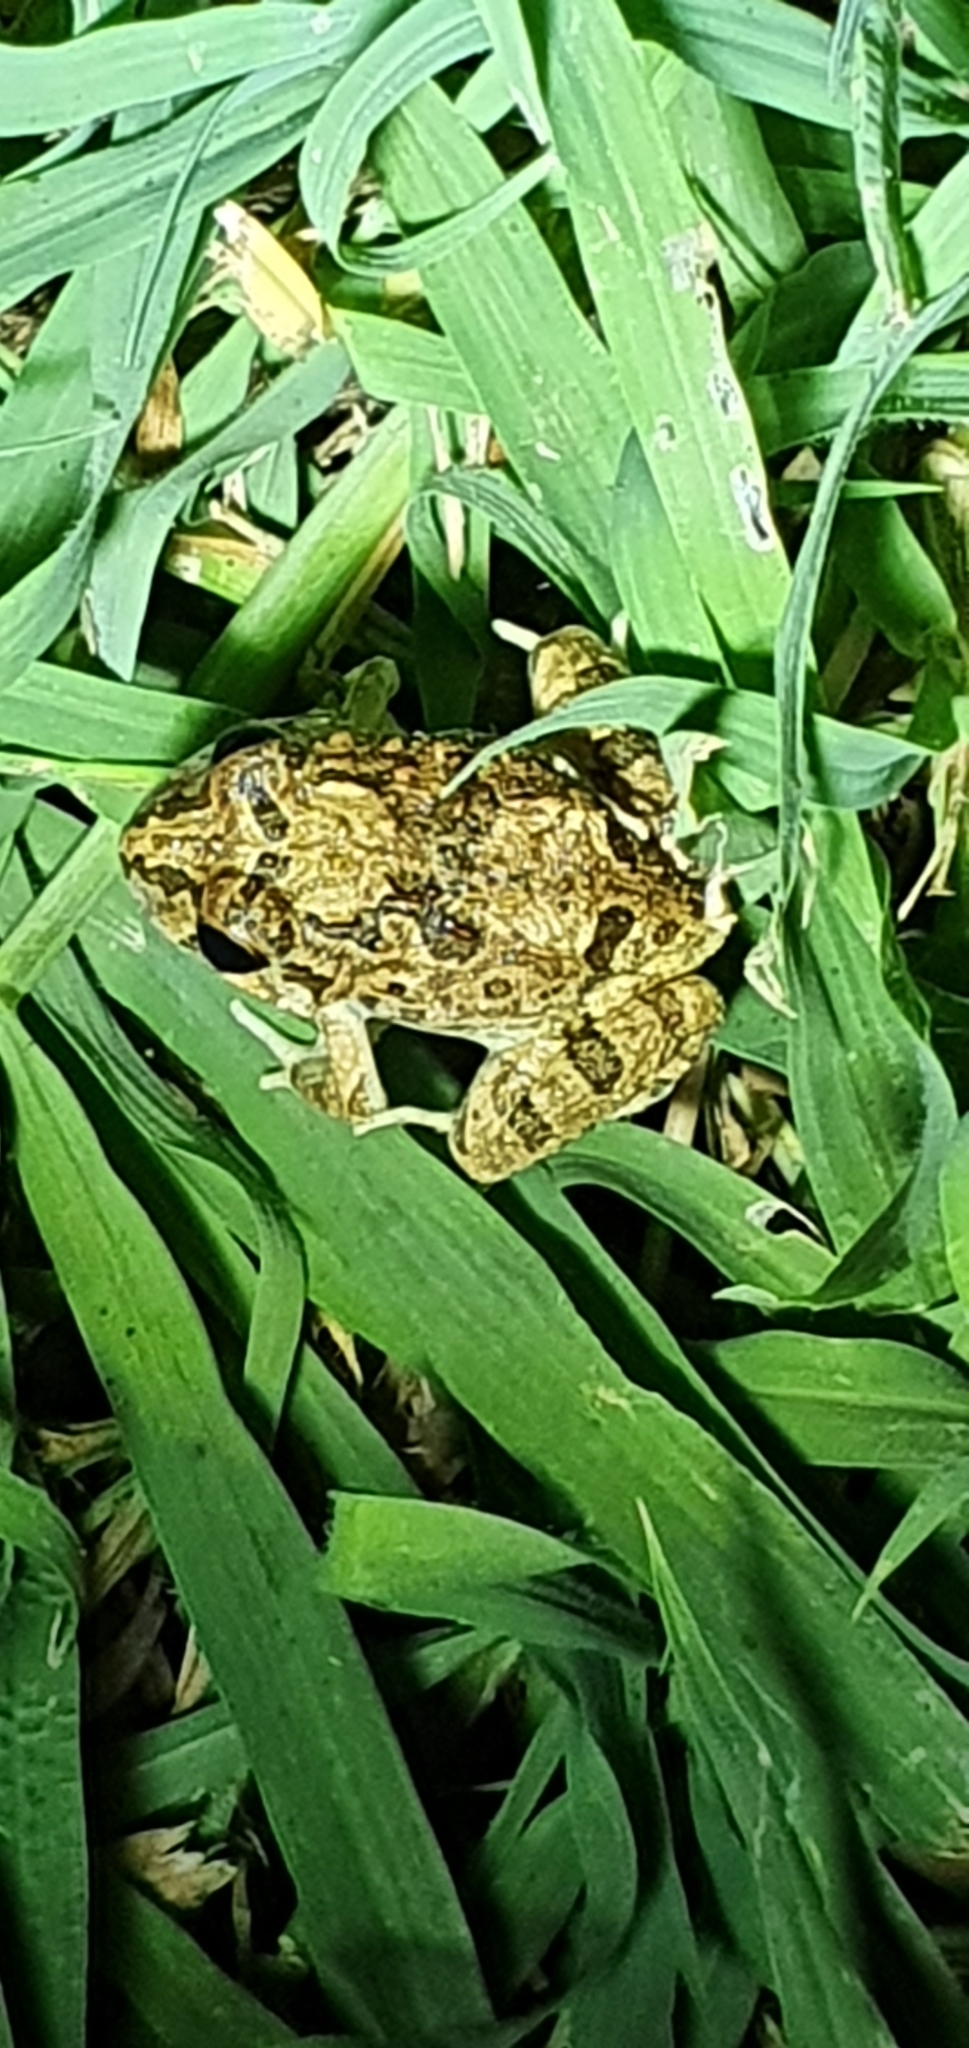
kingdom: Animalia
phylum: Chordata
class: Amphibia
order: Anura
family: Limnodynastidae
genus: Platyplectrum
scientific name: Platyplectrum ornatum
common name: Ornate burrowing frog
